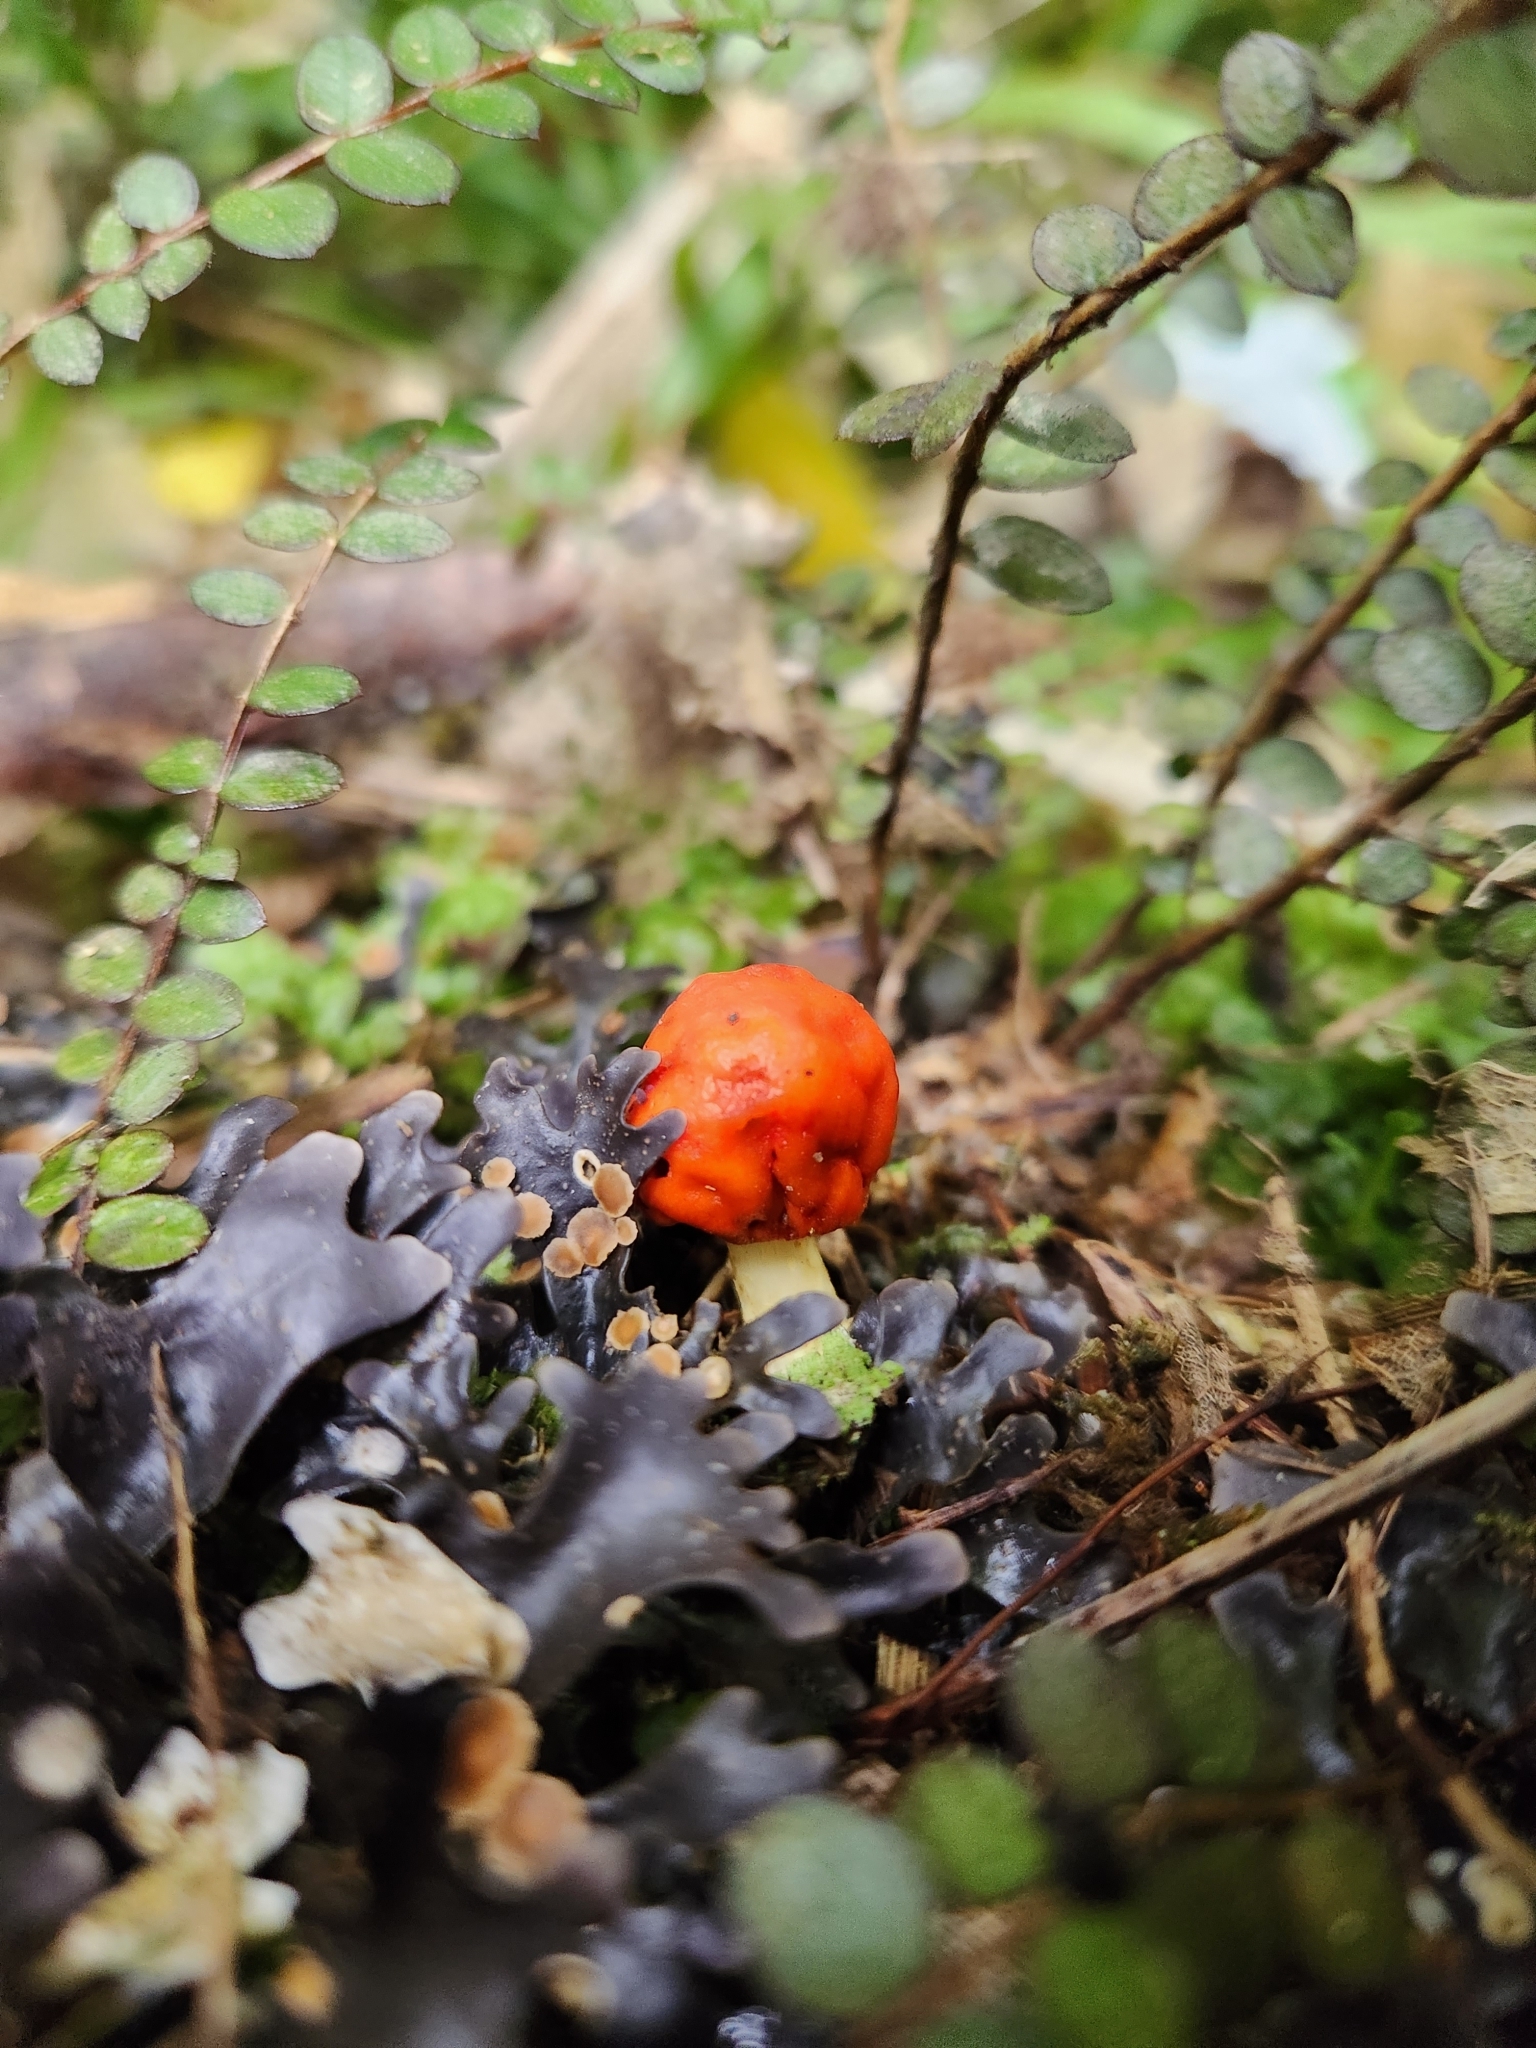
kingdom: Fungi
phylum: Basidiomycota
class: Agaricomycetes
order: Agaricales
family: Strophariaceae
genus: Leratiomyces
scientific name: Leratiomyces erythrocephalus
